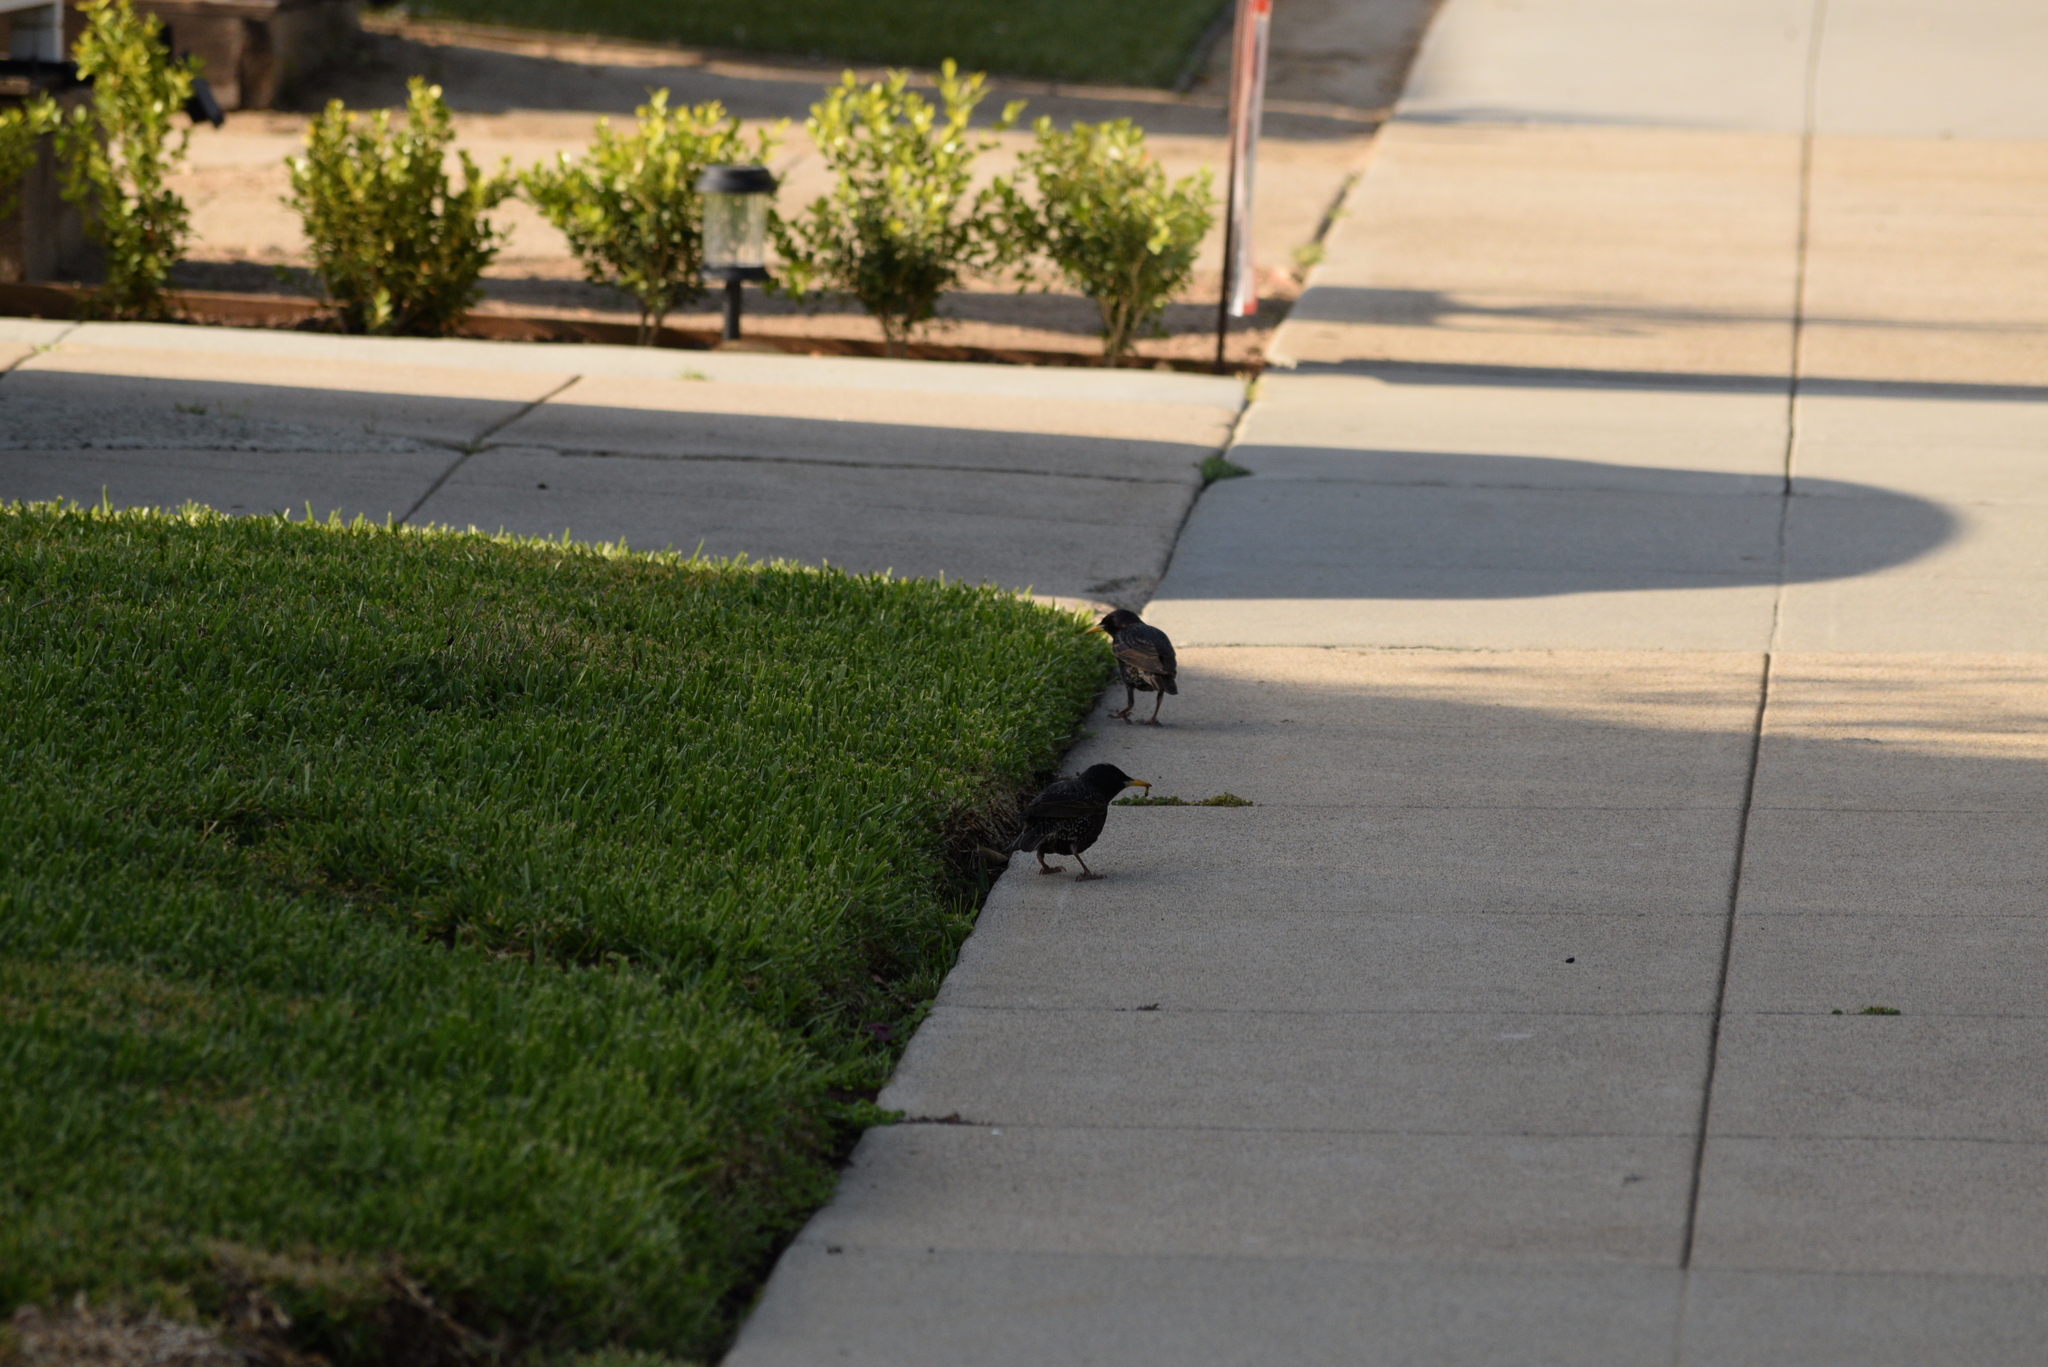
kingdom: Animalia
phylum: Chordata
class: Aves
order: Passeriformes
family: Sturnidae
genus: Sturnus
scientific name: Sturnus vulgaris
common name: Common starling
